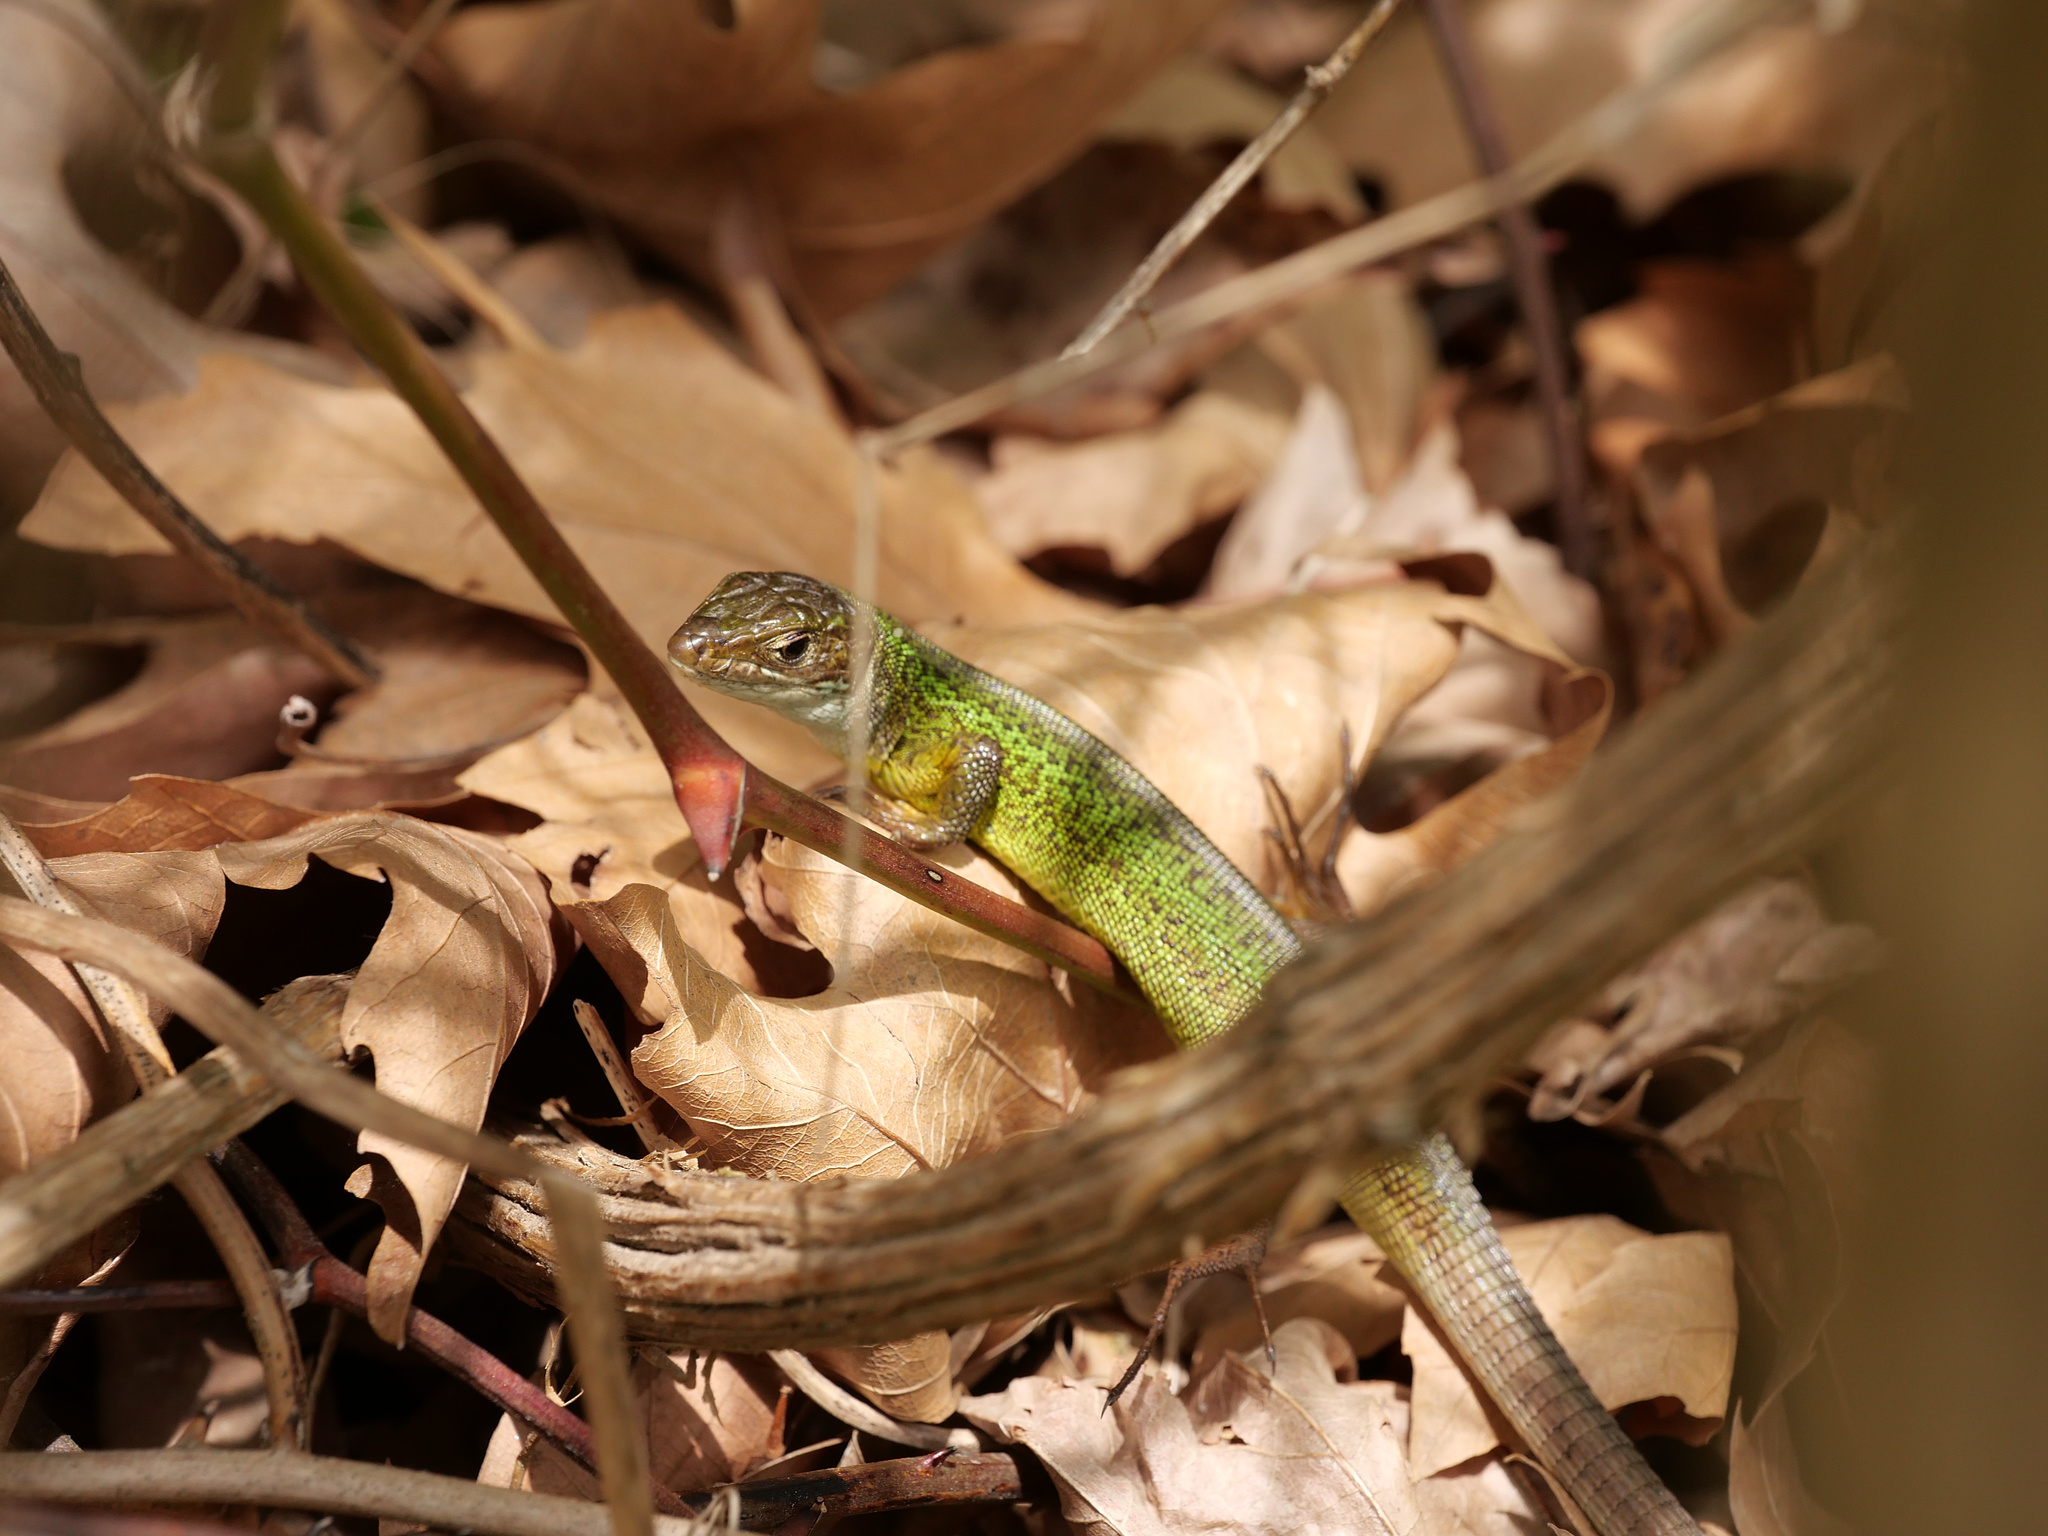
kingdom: Animalia
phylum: Chordata
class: Squamata
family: Lacertidae
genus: Lacerta
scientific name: Lacerta viridis
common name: European green lizard
